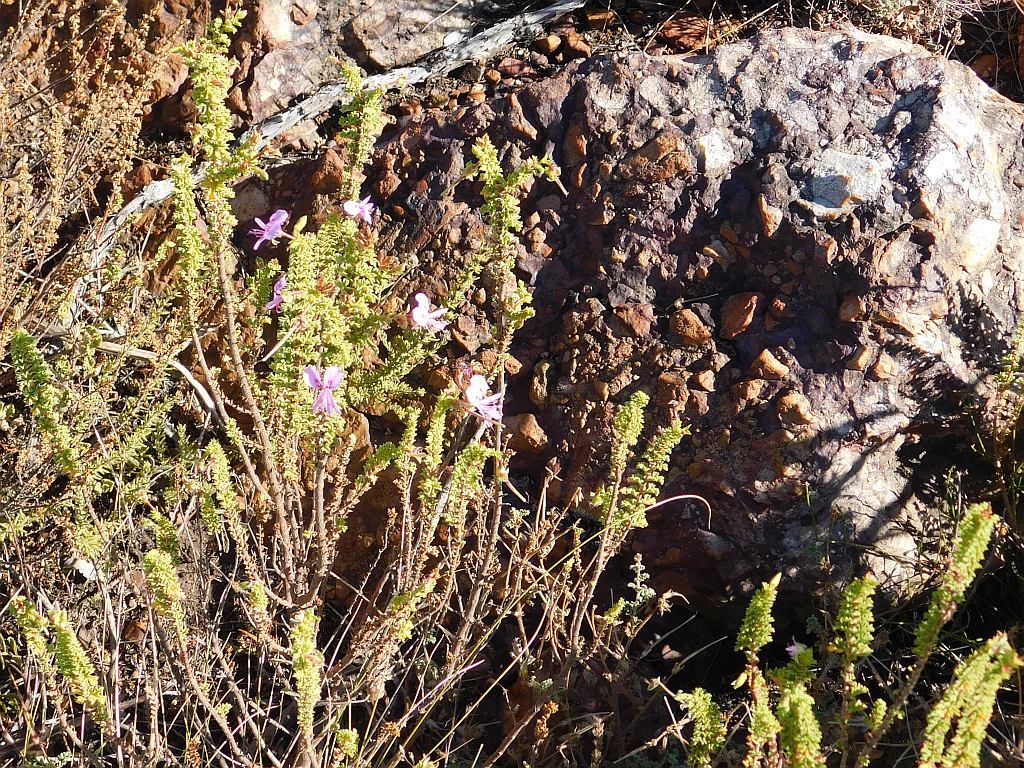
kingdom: Plantae
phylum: Tracheophyta
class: Magnoliopsida
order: Geraniales
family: Geraniaceae
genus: Pelargonium
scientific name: Pelargonium hermaniifolium
